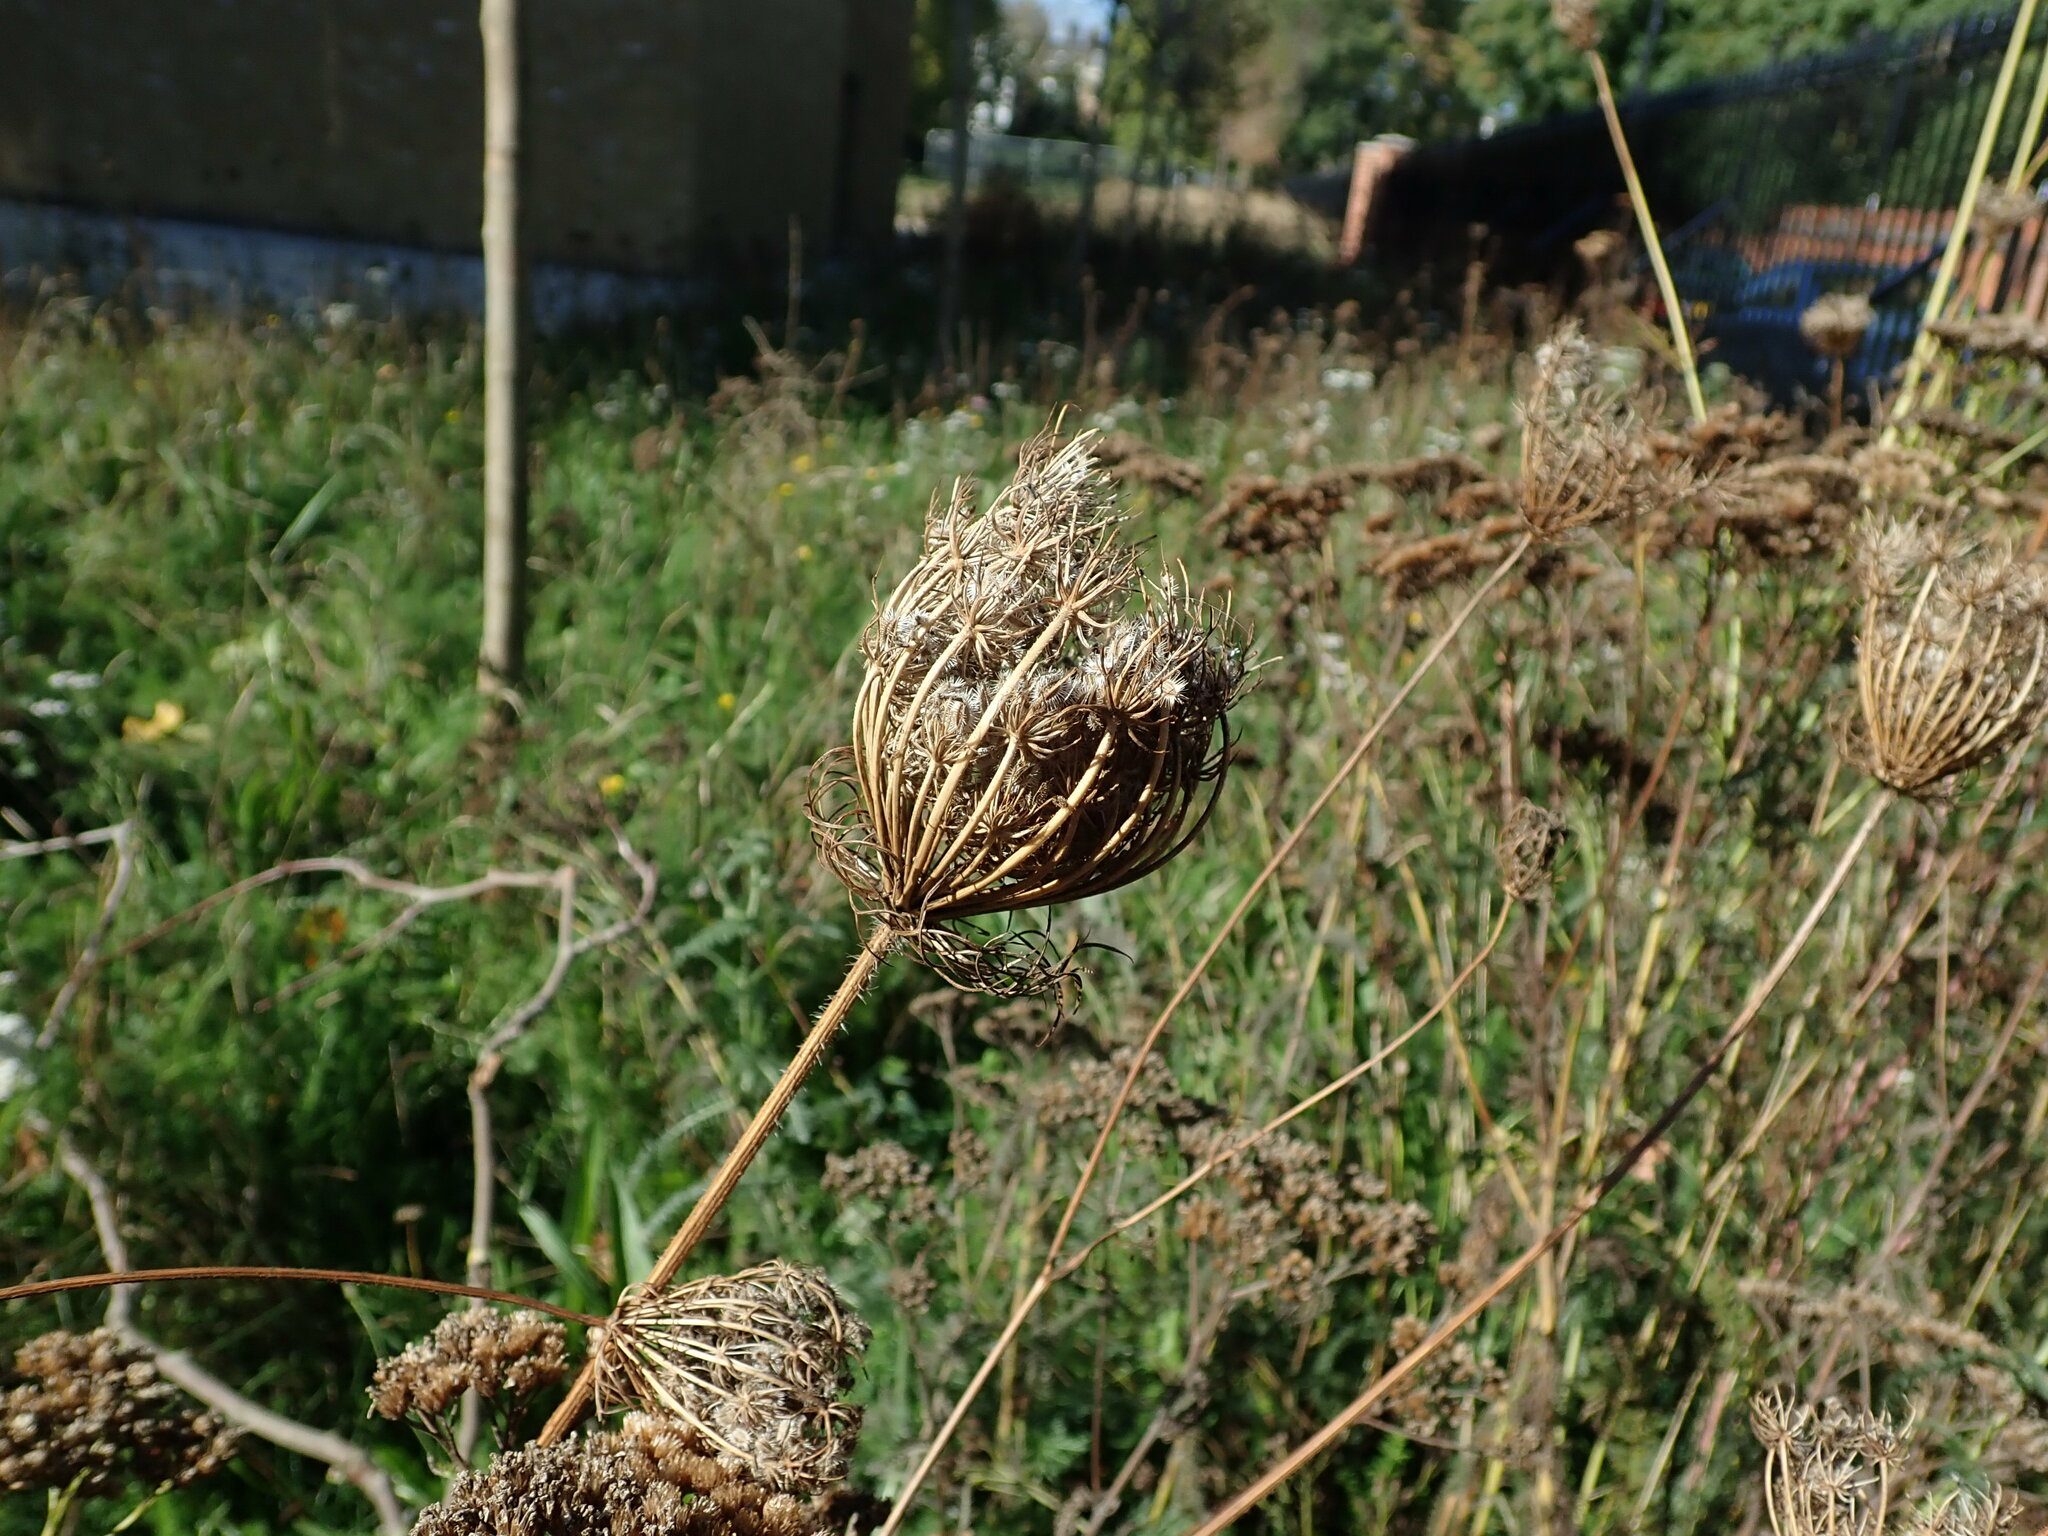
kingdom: Plantae
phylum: Tracheophyta
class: Magnoliopsida
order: Apiales
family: Apiaceae
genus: Daucus
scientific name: Daucus carota
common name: Wild carrot
